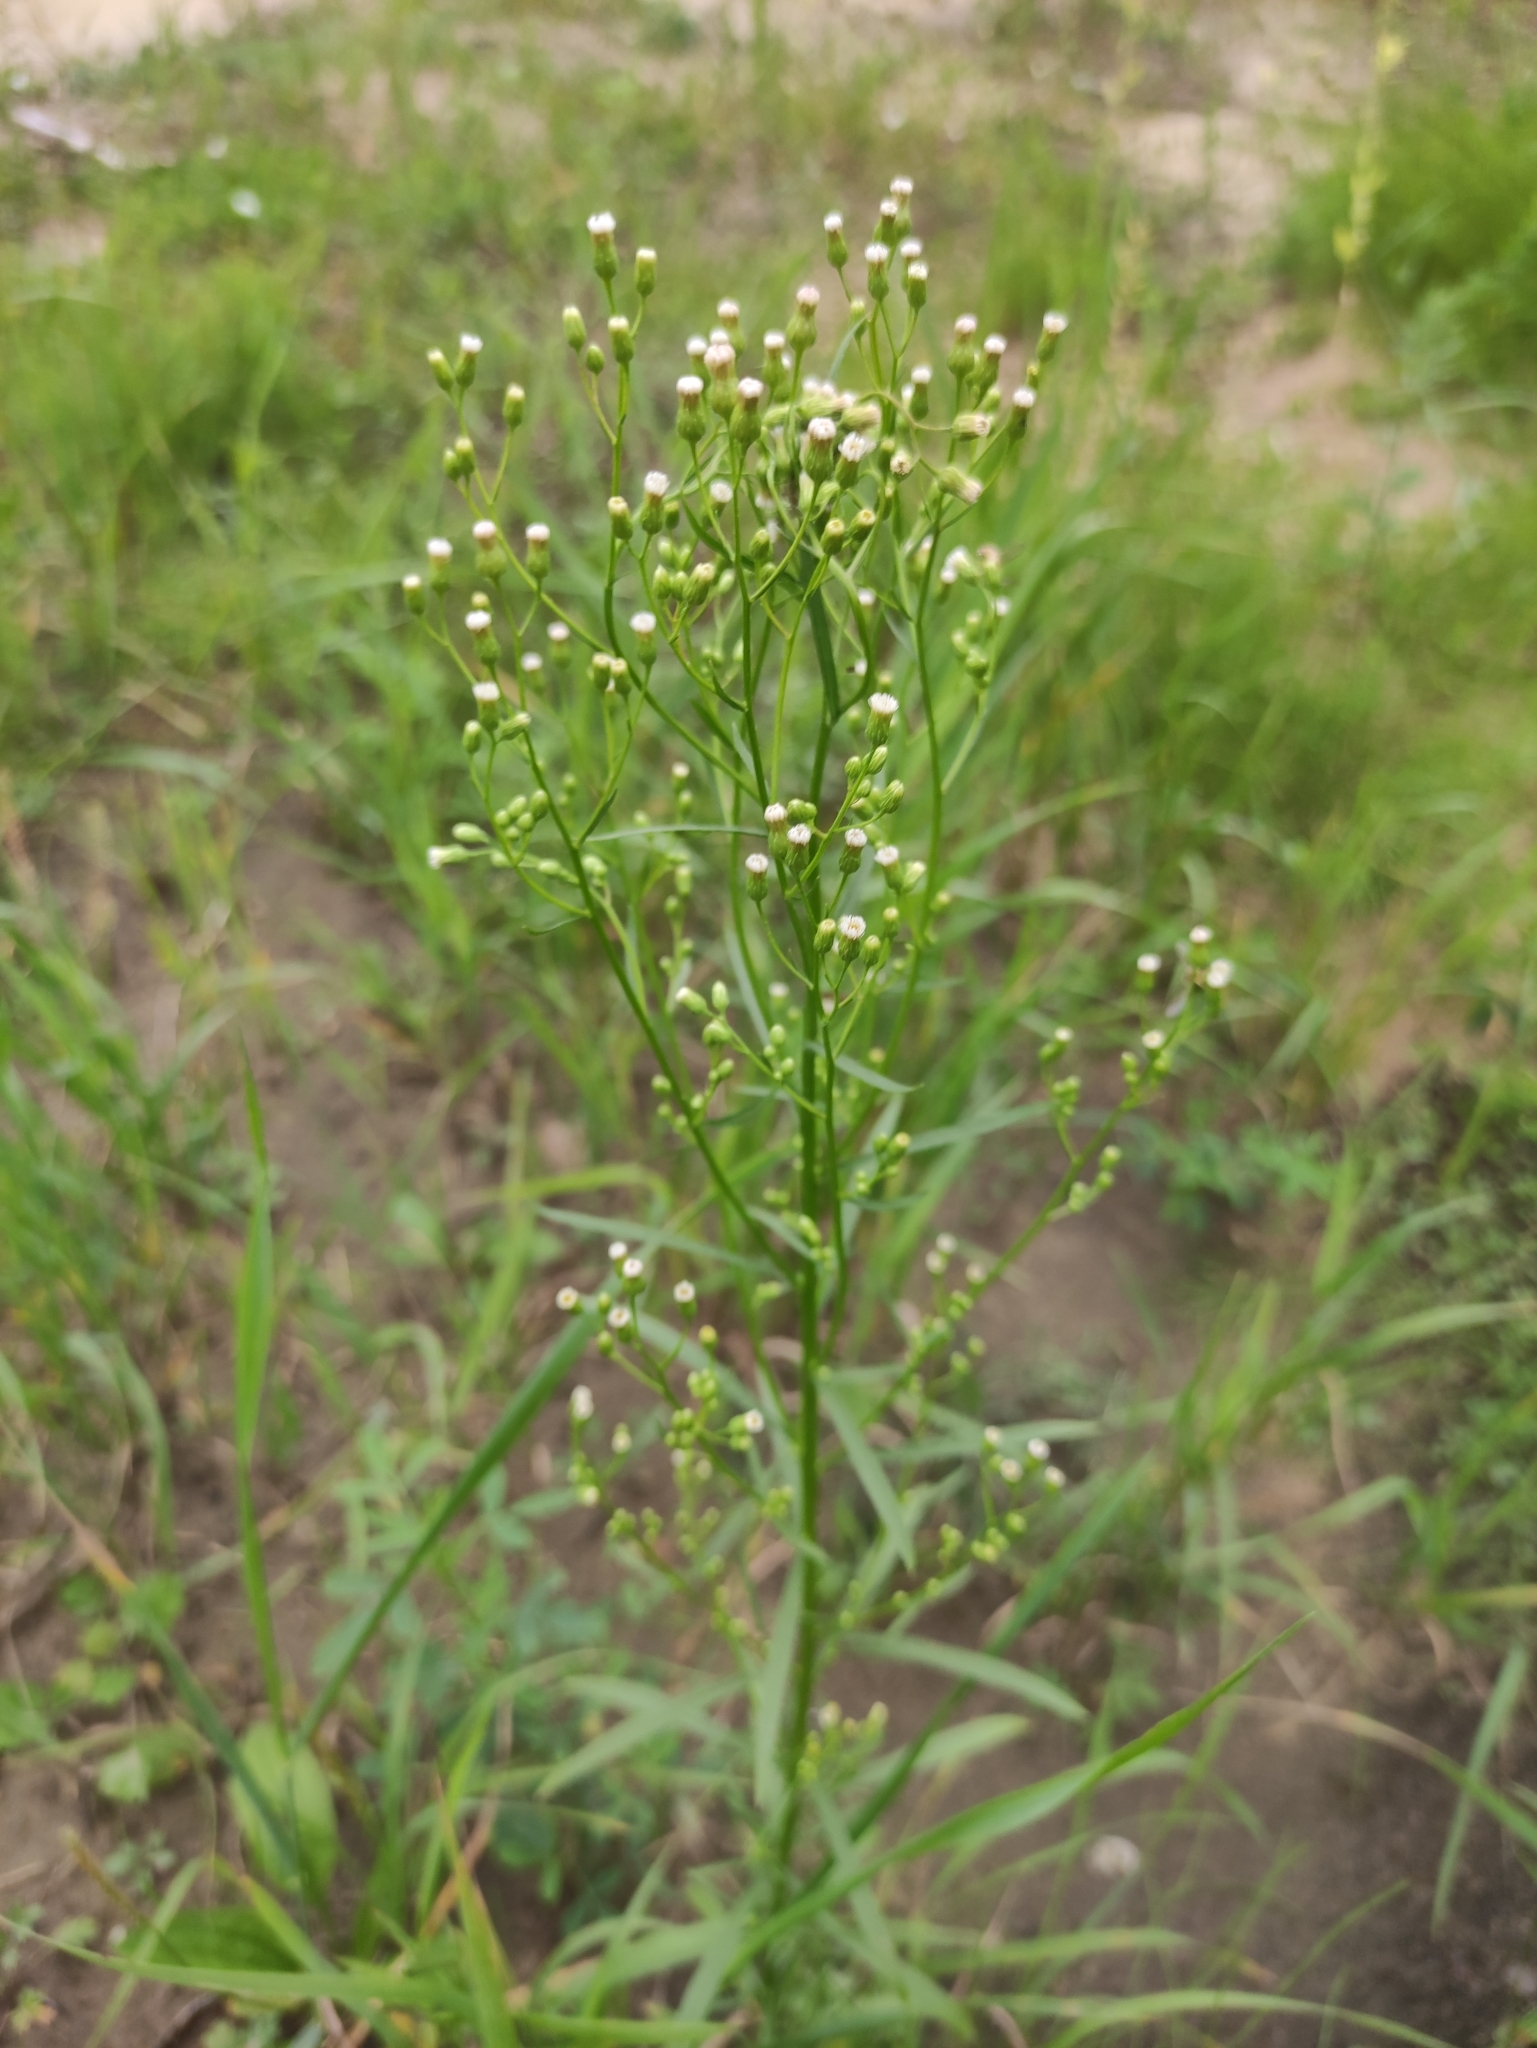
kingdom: Plantae
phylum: Tracheophyta
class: Magnoliopsida
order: Asterales
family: Asteraceae
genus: Erigeron
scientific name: Erigeron canadensis
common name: Canadian fleabane
